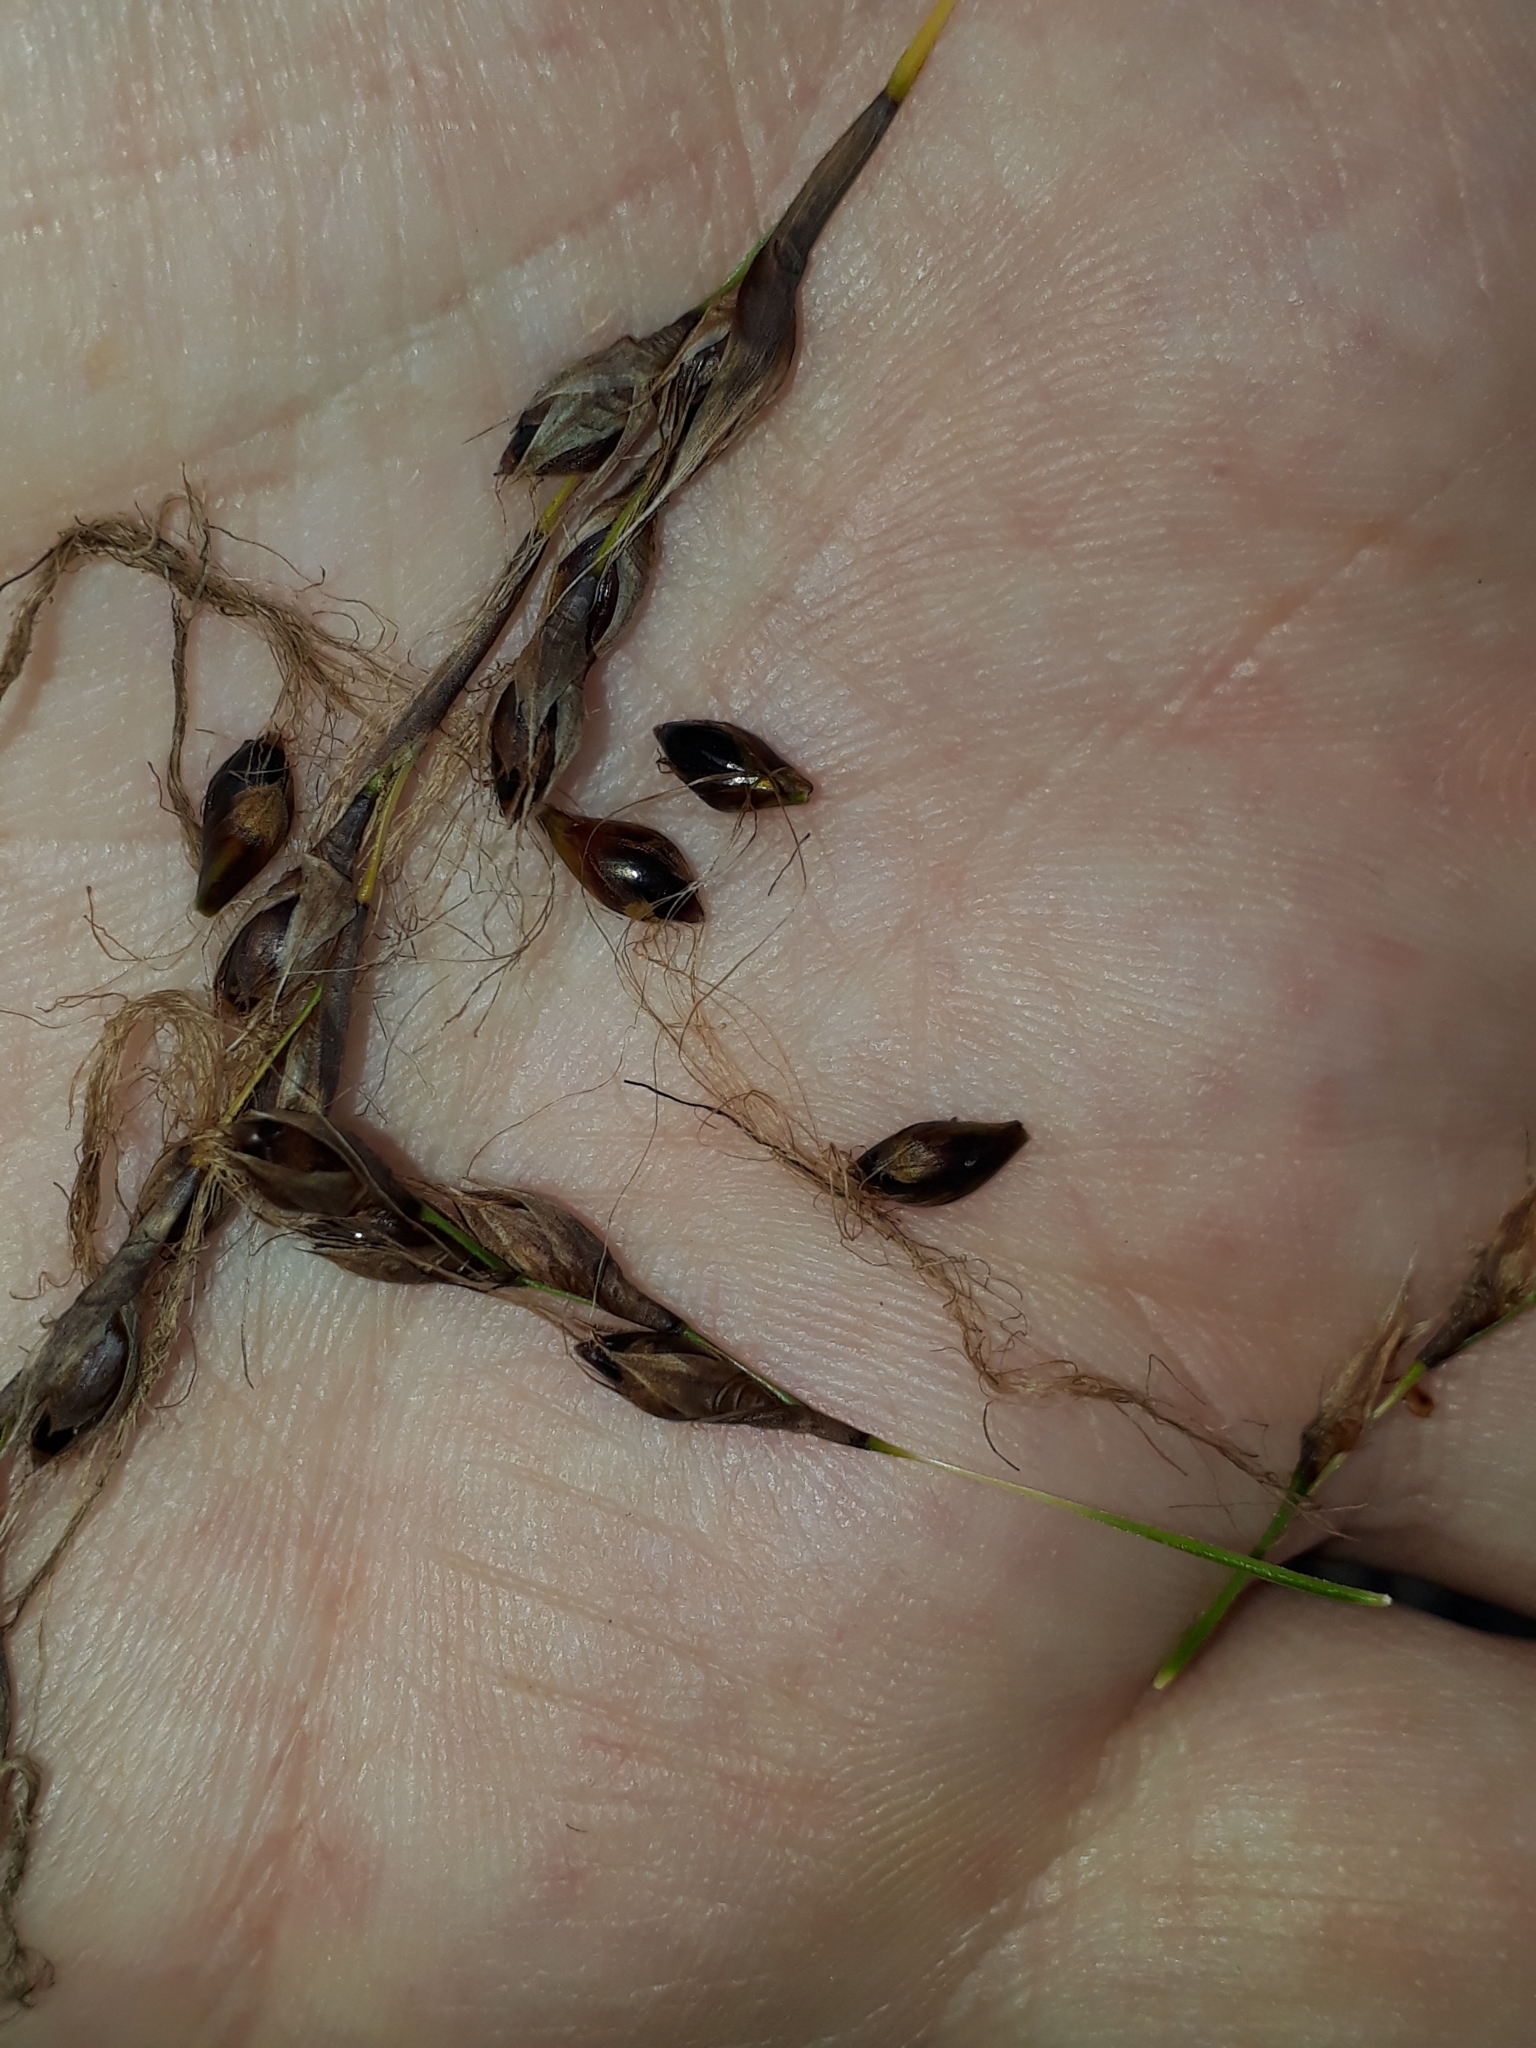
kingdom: Plantae
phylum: Tracheophyta
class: Liliopsida
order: Poales
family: Cyperaceae
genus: Gahnia
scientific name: Gahnia xanthocarpa
